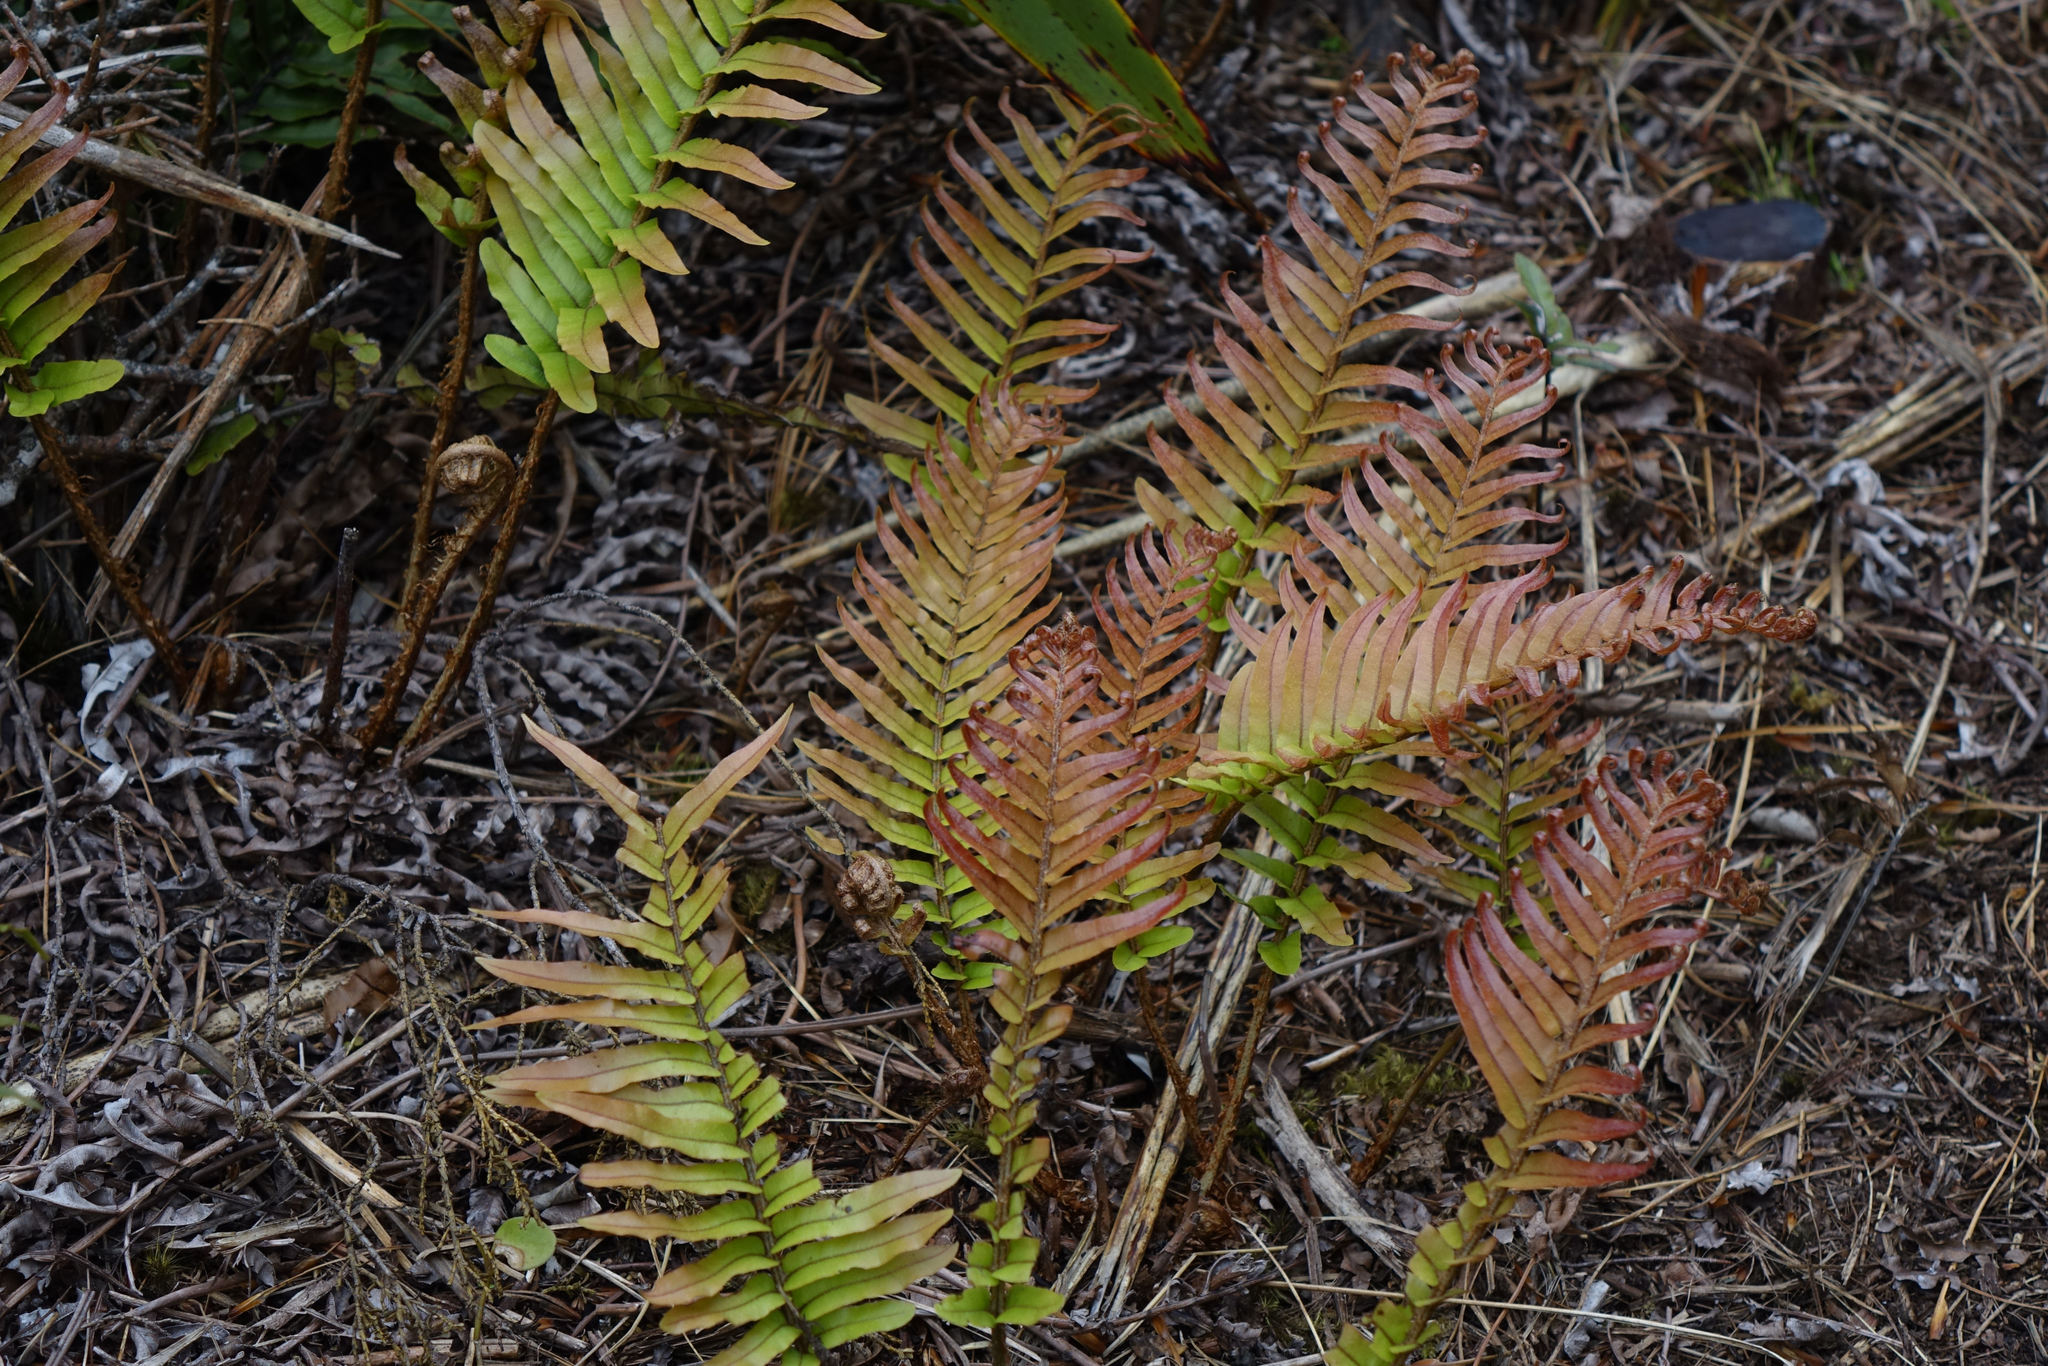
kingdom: Plantae
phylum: Tracheophyta
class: Polypodiopsida
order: Polypodiales
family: Blechnaceae
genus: Parablechnum
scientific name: Parablechnum montanum
